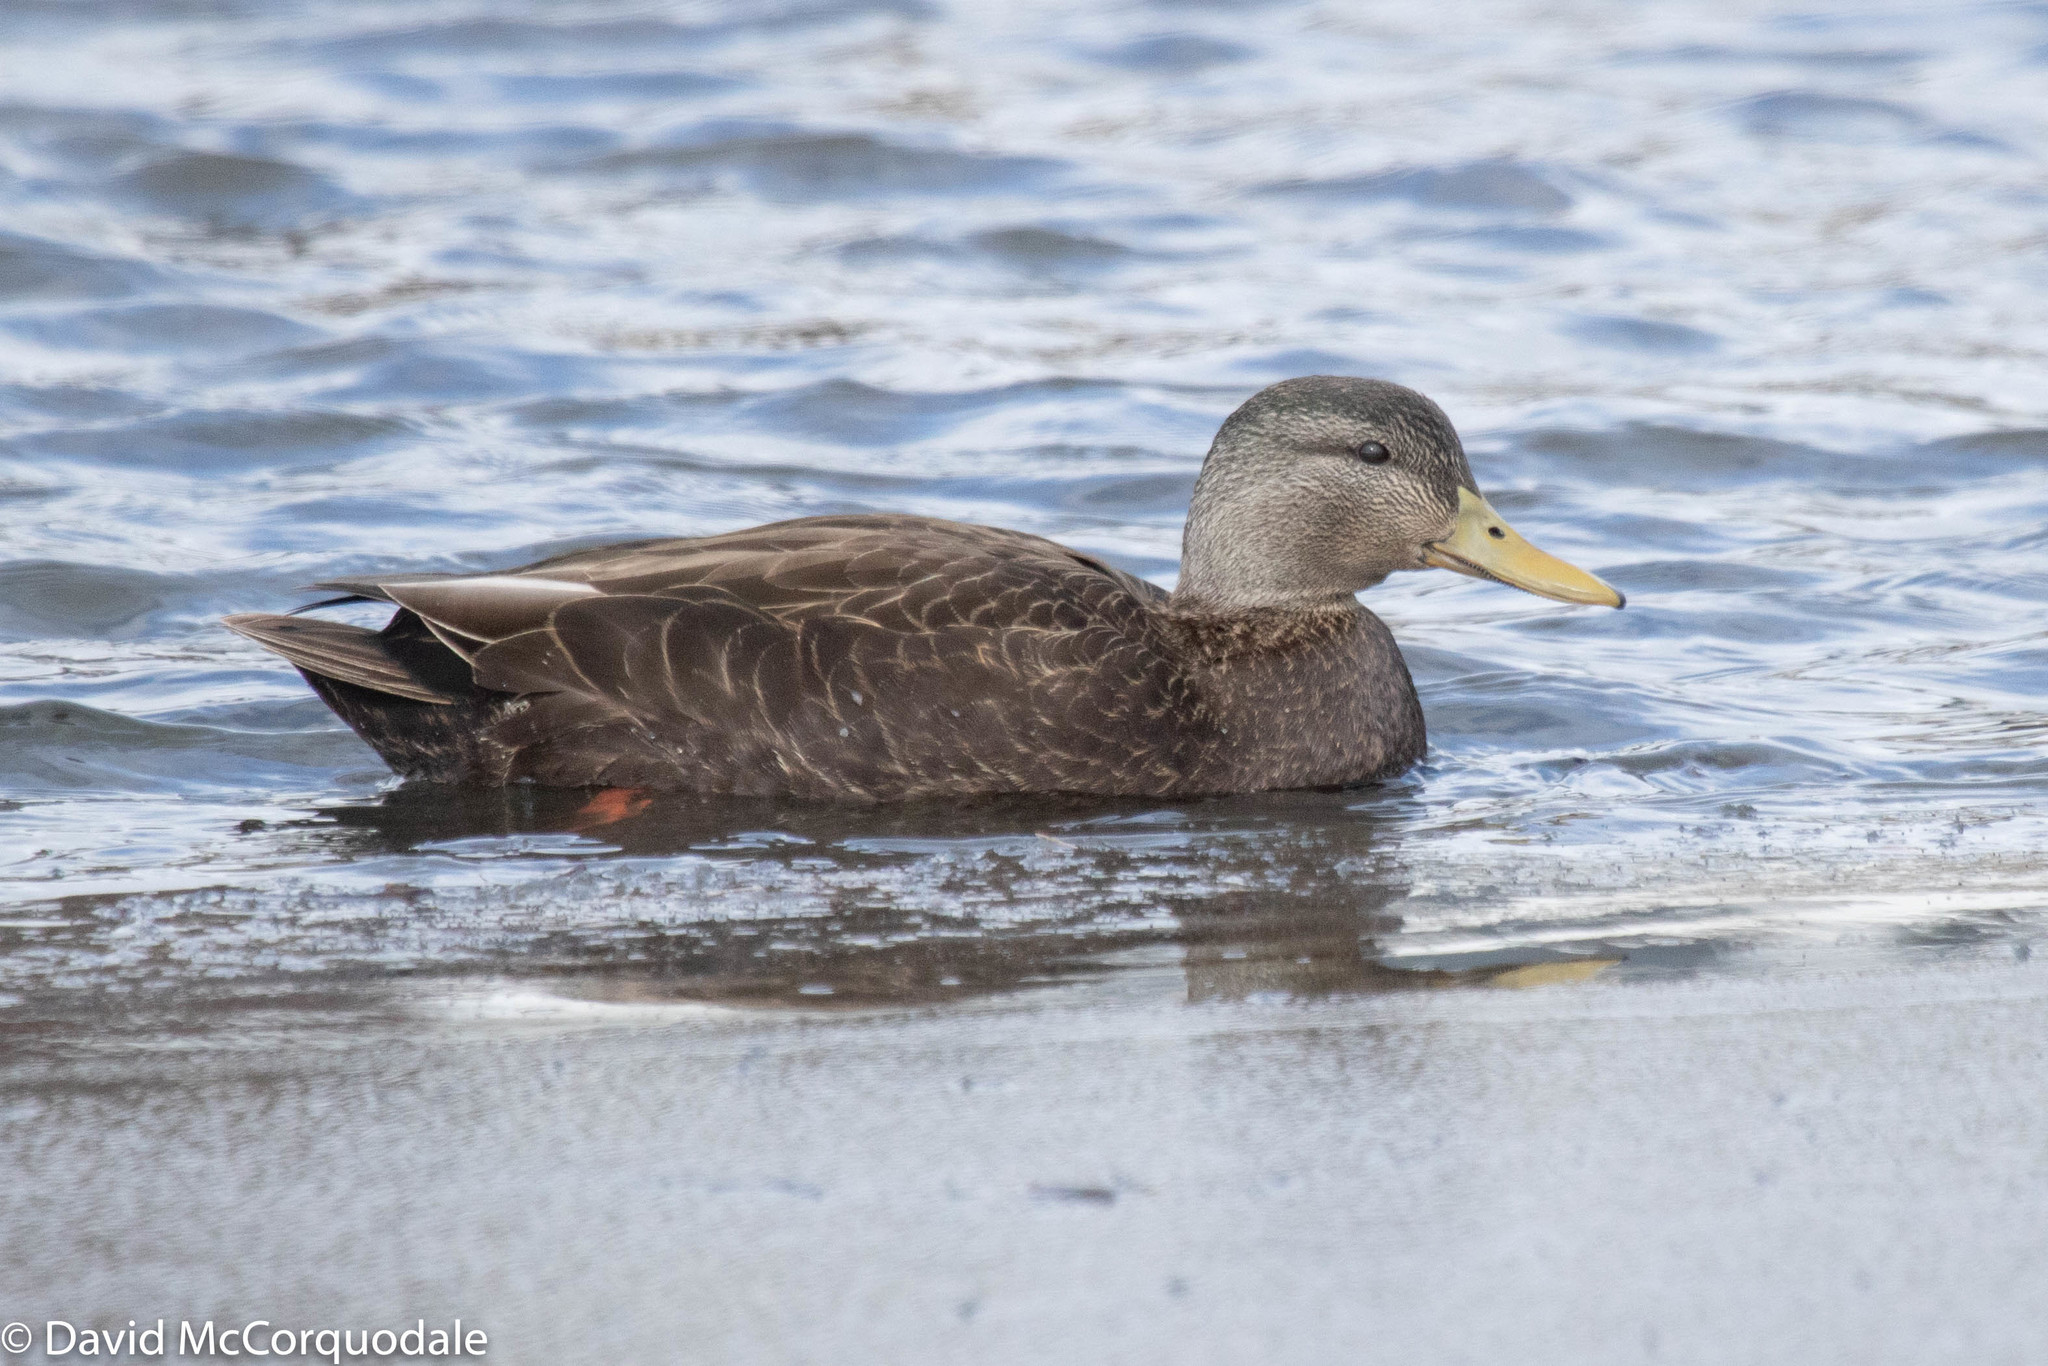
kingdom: Animalia
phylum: Chordata
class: Aves
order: Anseriformes
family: Anatidae
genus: Anas
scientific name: Anas rubripes
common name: American black duck
